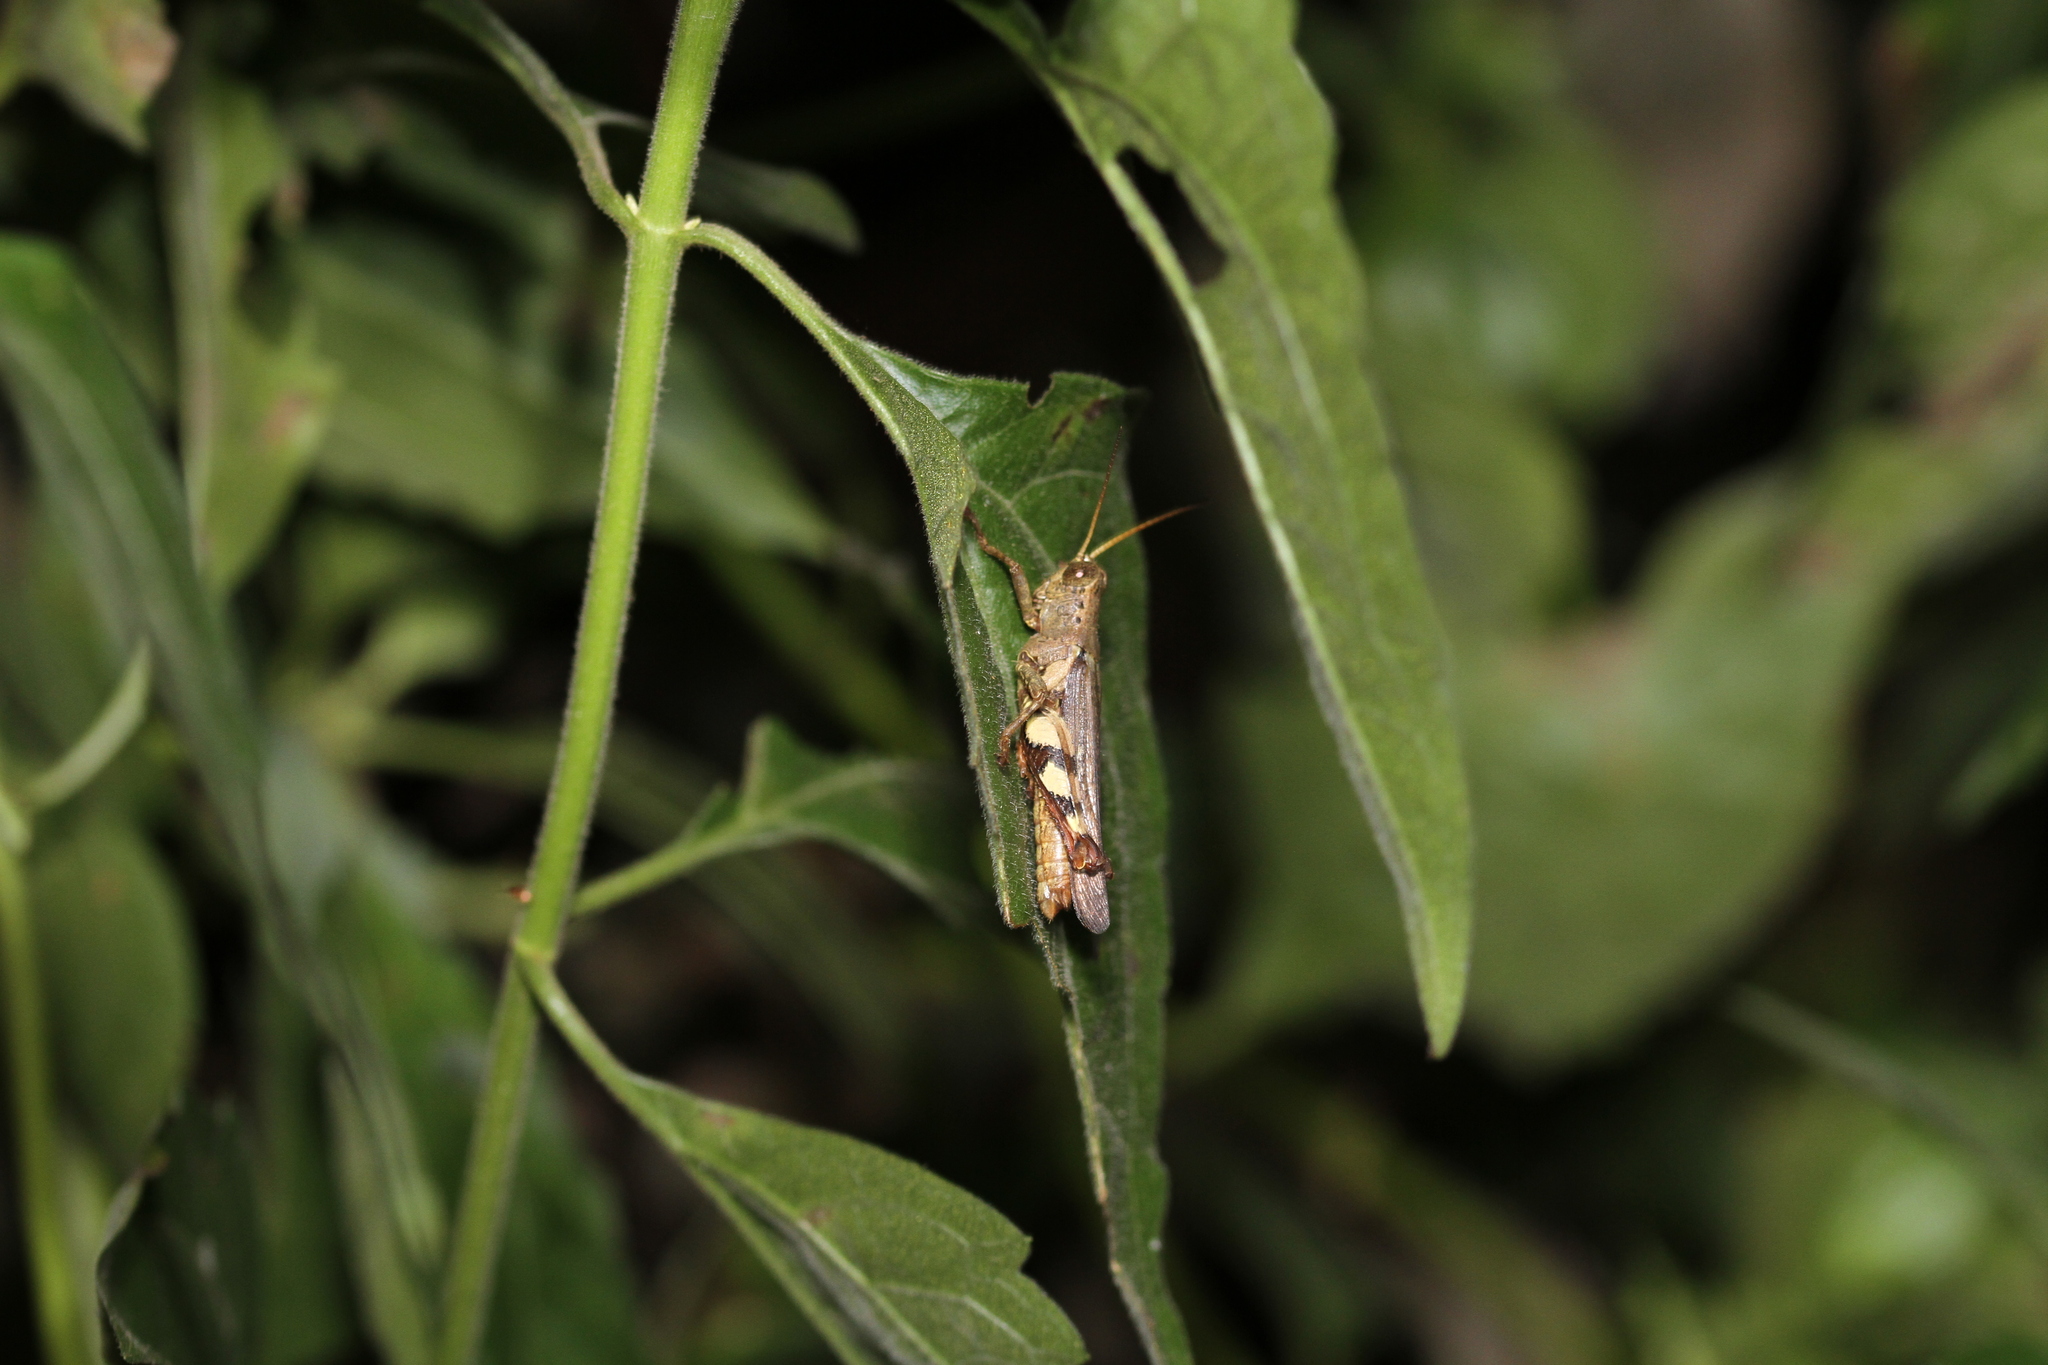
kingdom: Animalia
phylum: Arthropoda
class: Insecta
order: Orthoptera
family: Acrididae
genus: Xenocatantops
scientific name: Xenocatantops humile
